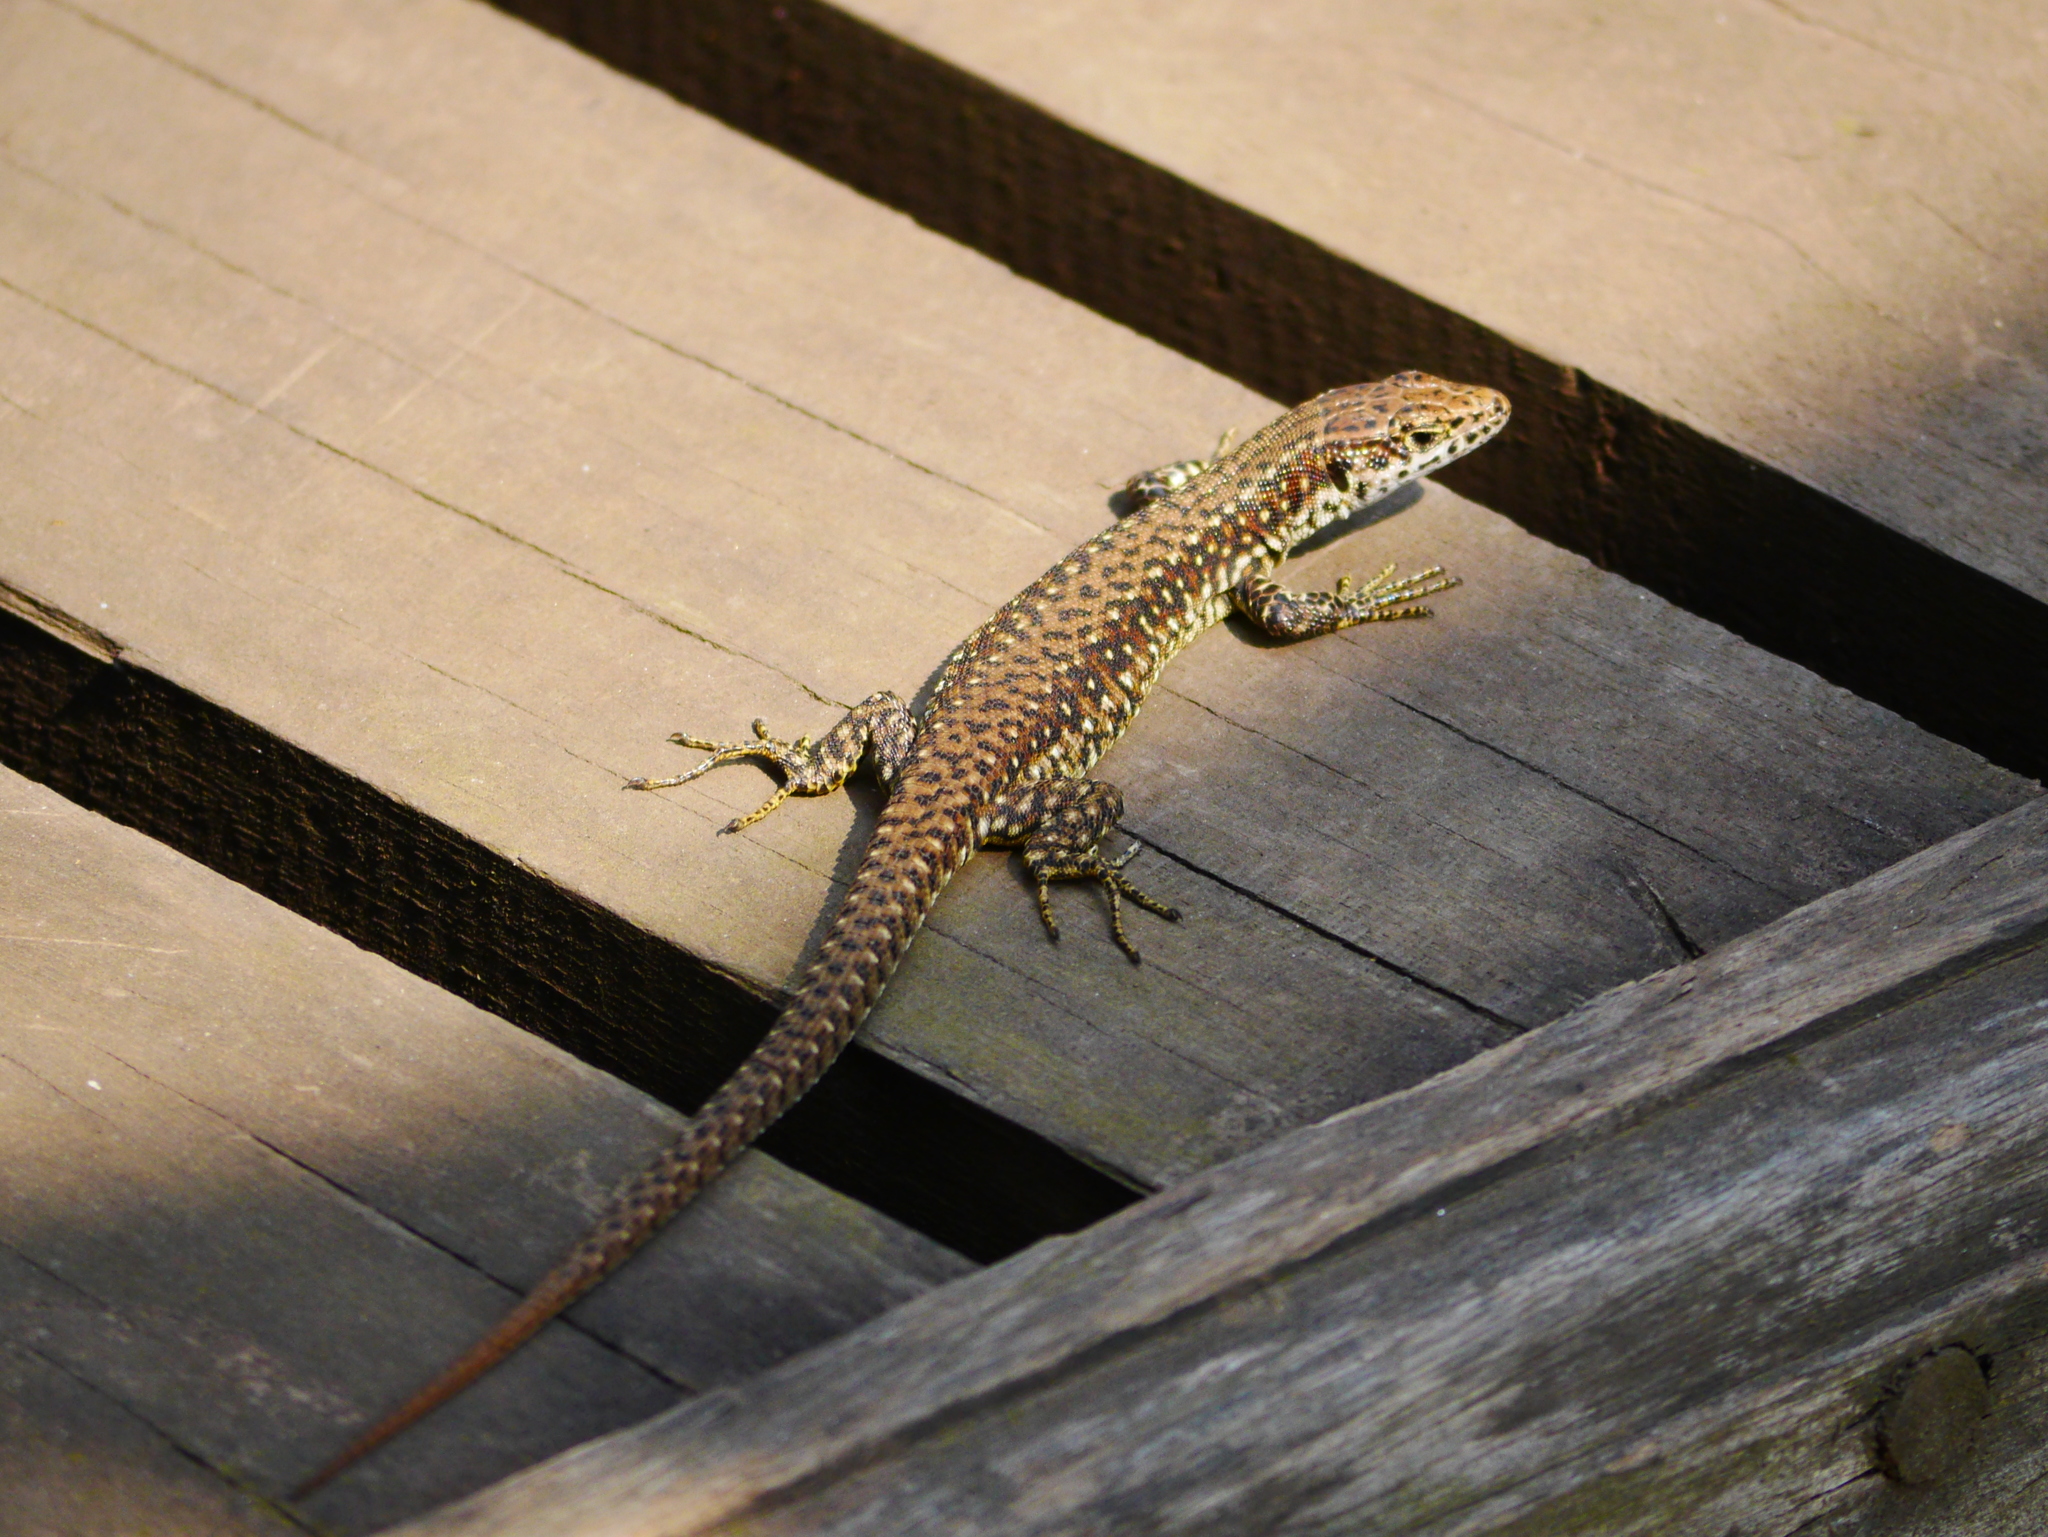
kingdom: Animalia
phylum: Chordata
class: Squamata
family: Lacertidae
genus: Adolfus
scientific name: Adolfus jacksoni
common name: Jackson’s forest lizard
